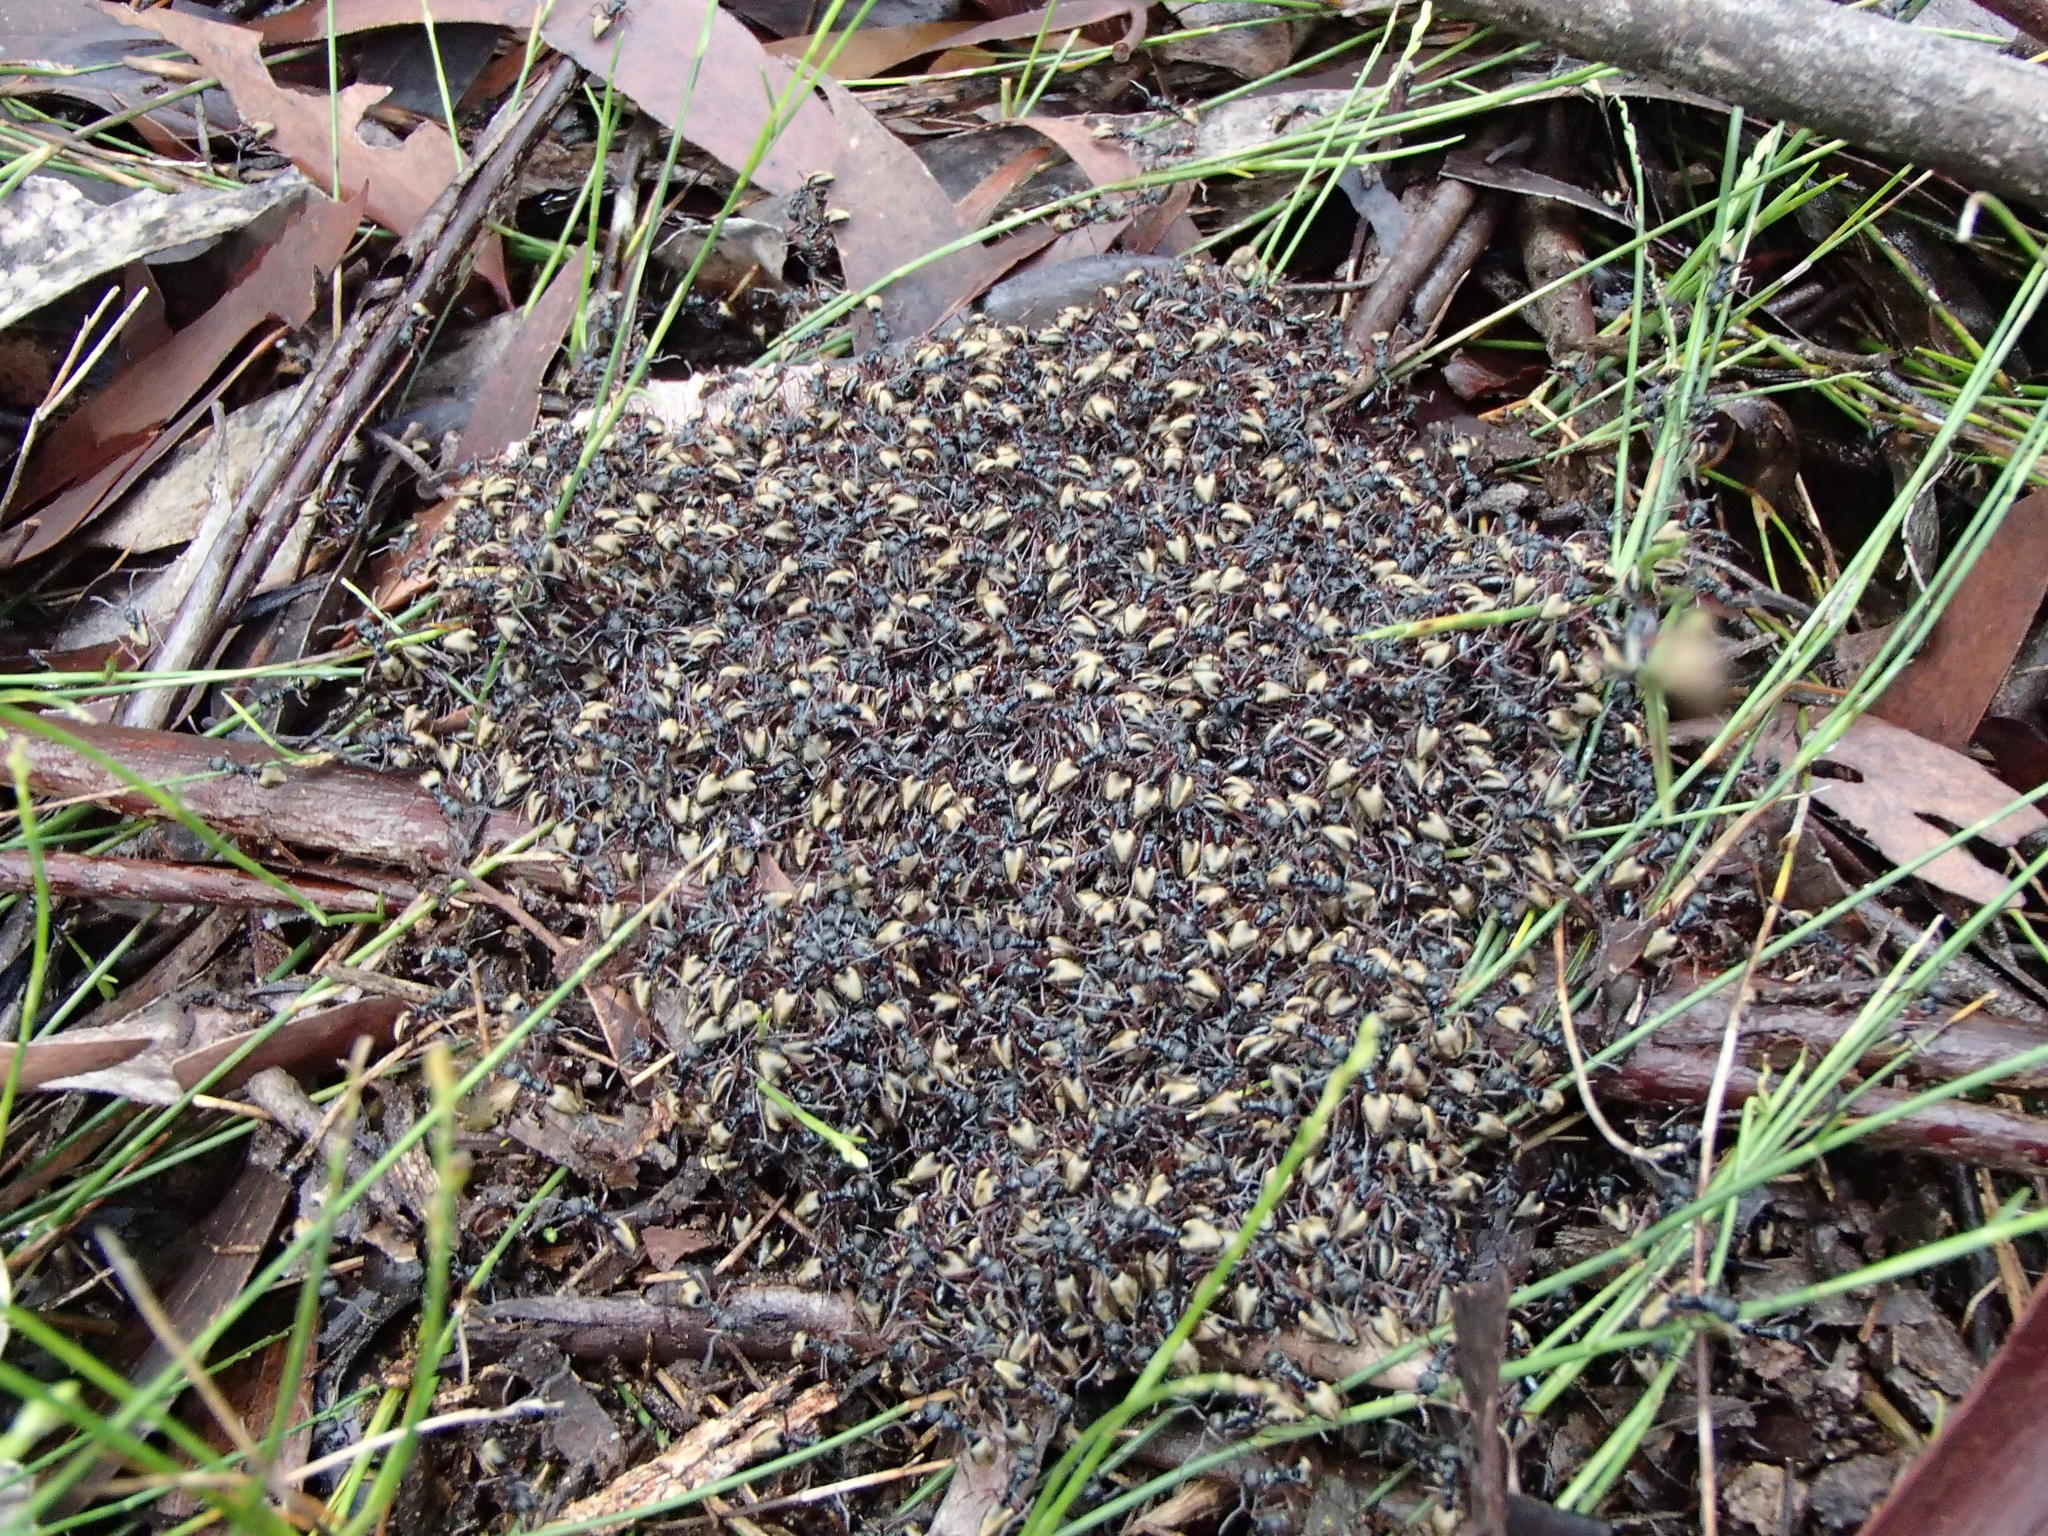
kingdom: Animalia
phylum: Arthropoda
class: Insecta
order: Hymenoptera
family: Formicidae
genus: Dolichoderus
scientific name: Dolichoderus doriae
